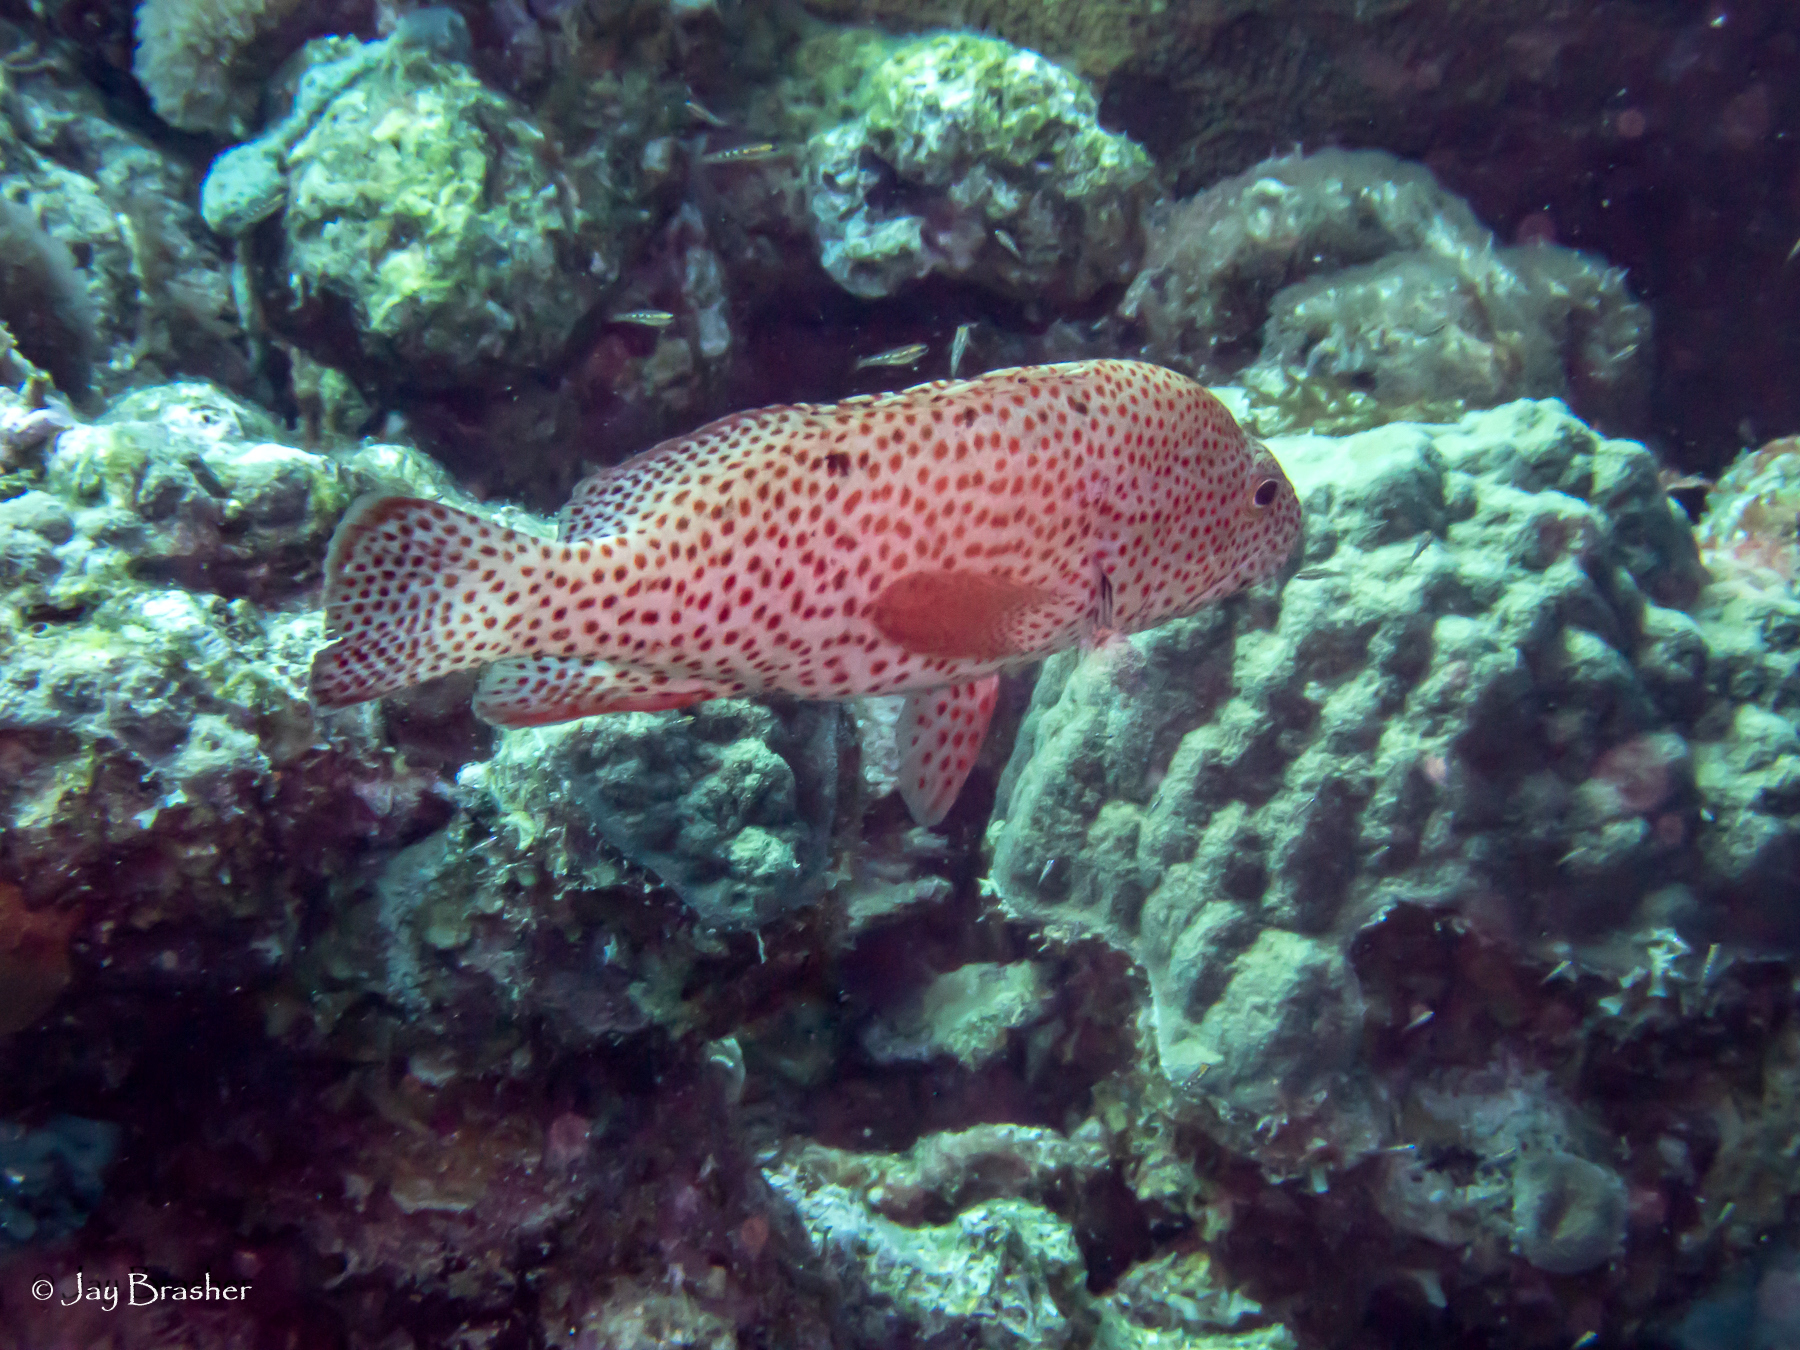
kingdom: Animalia
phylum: Chordata
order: Perciformes
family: Serranidae
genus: Cephalopholis
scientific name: Cephalopholis cruentata
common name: Graysby
